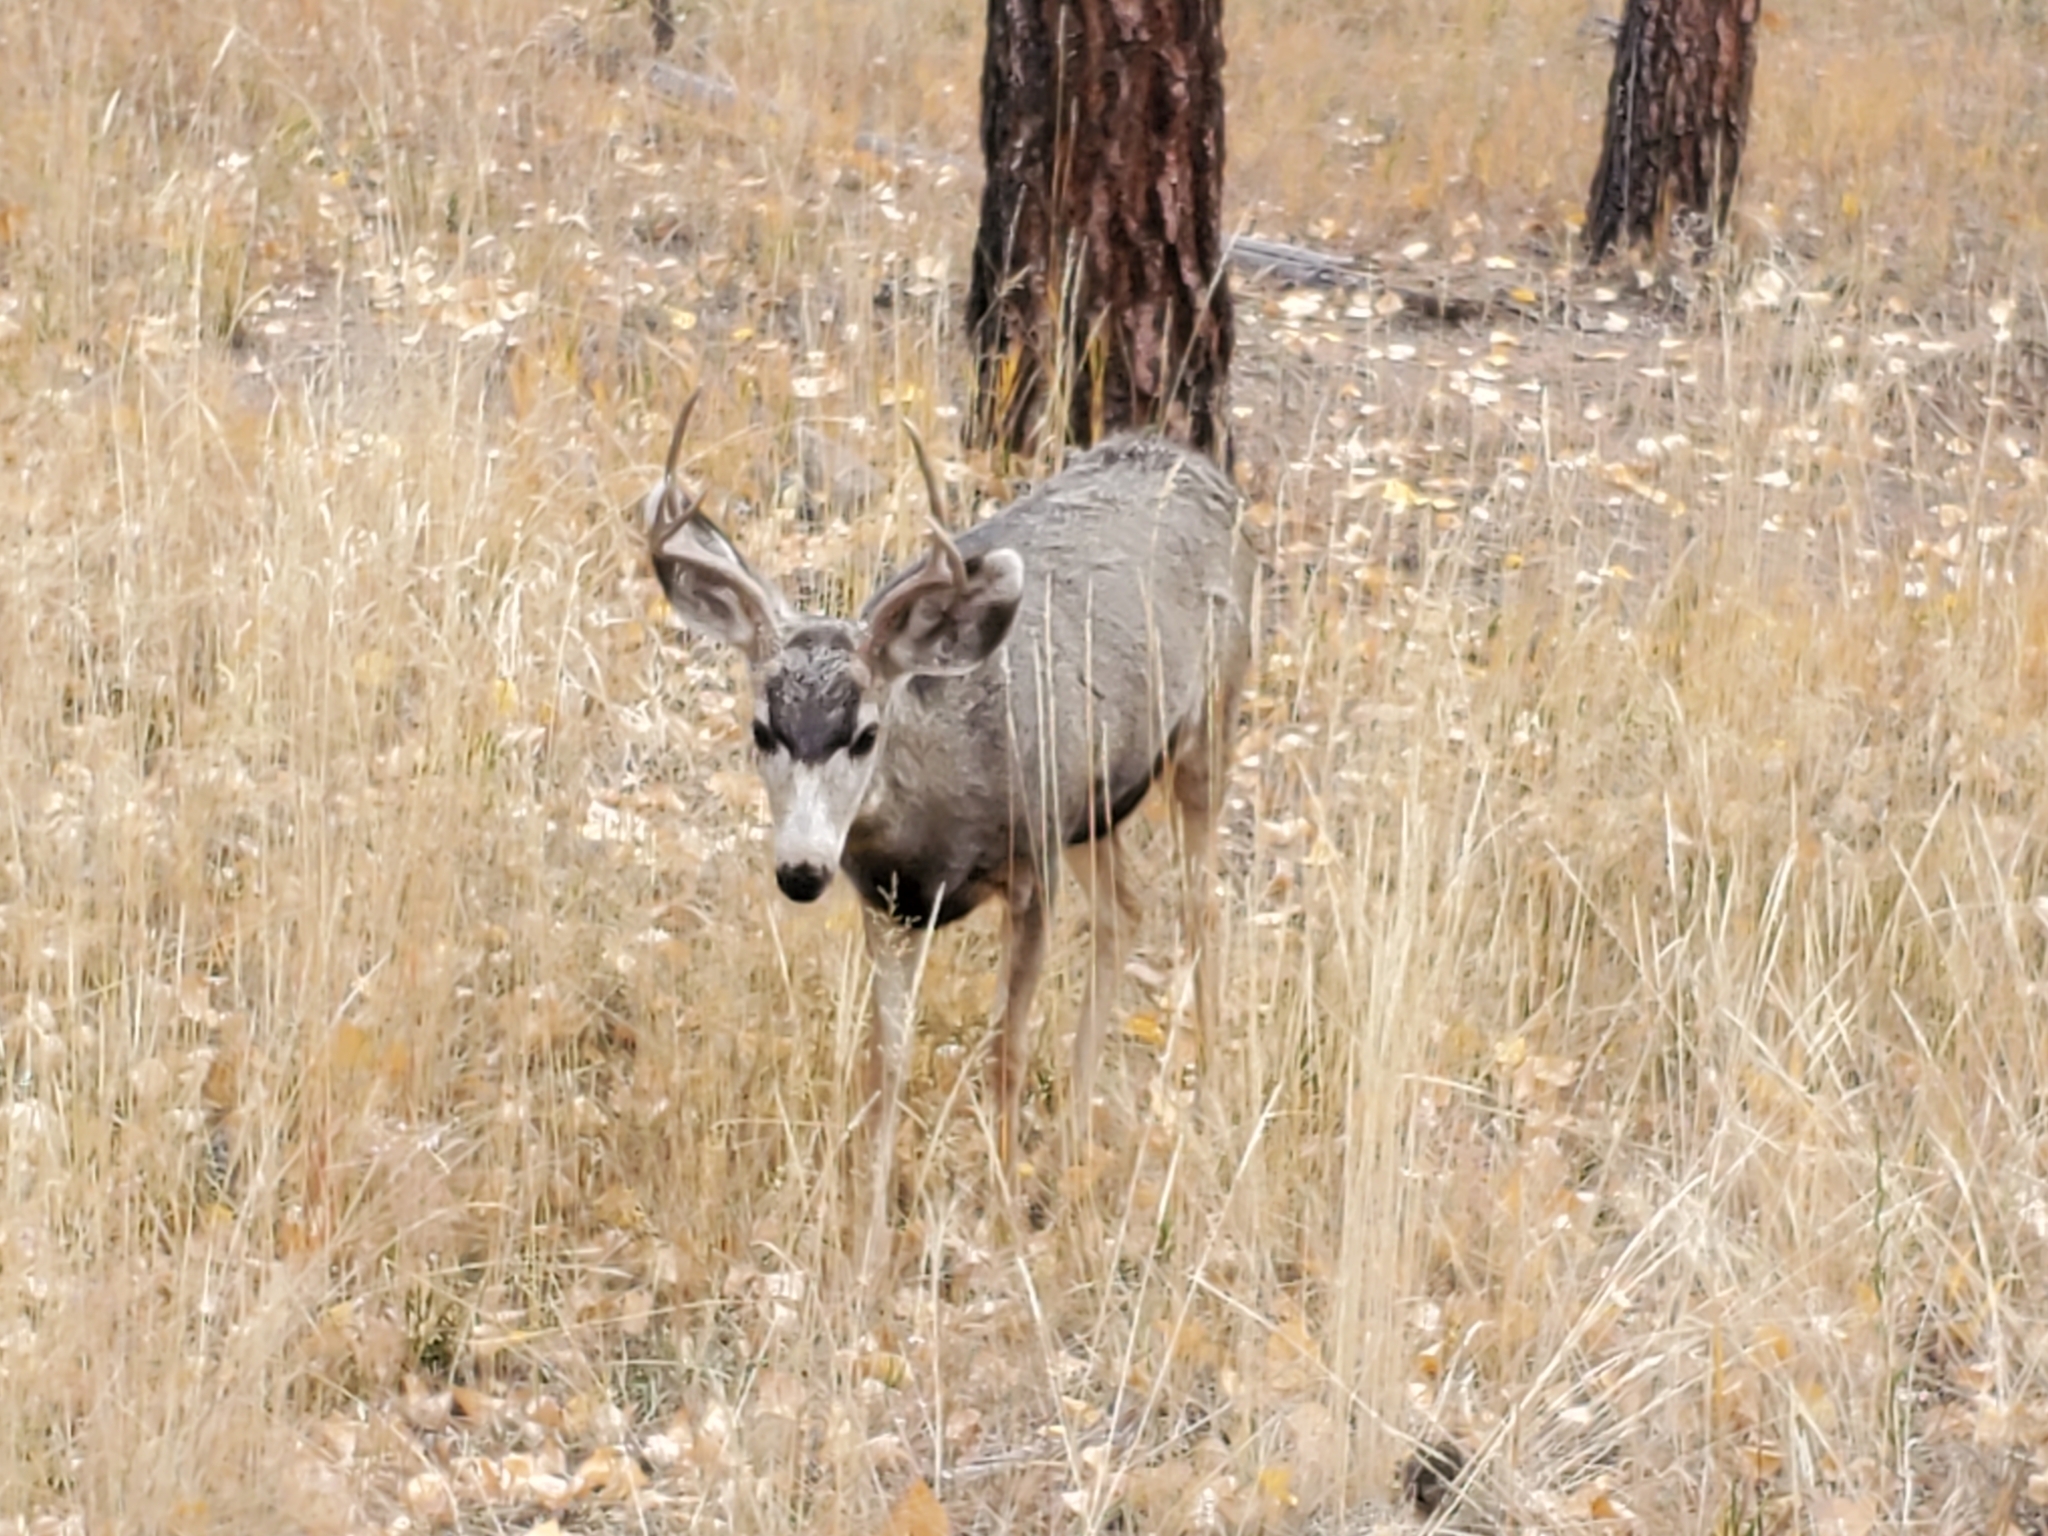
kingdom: Animalia
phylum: Chordata
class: Mammalia
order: Artiodactyla
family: Cervidae
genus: Odocoileus
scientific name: Odocoileus hemionus
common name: Mule deer
